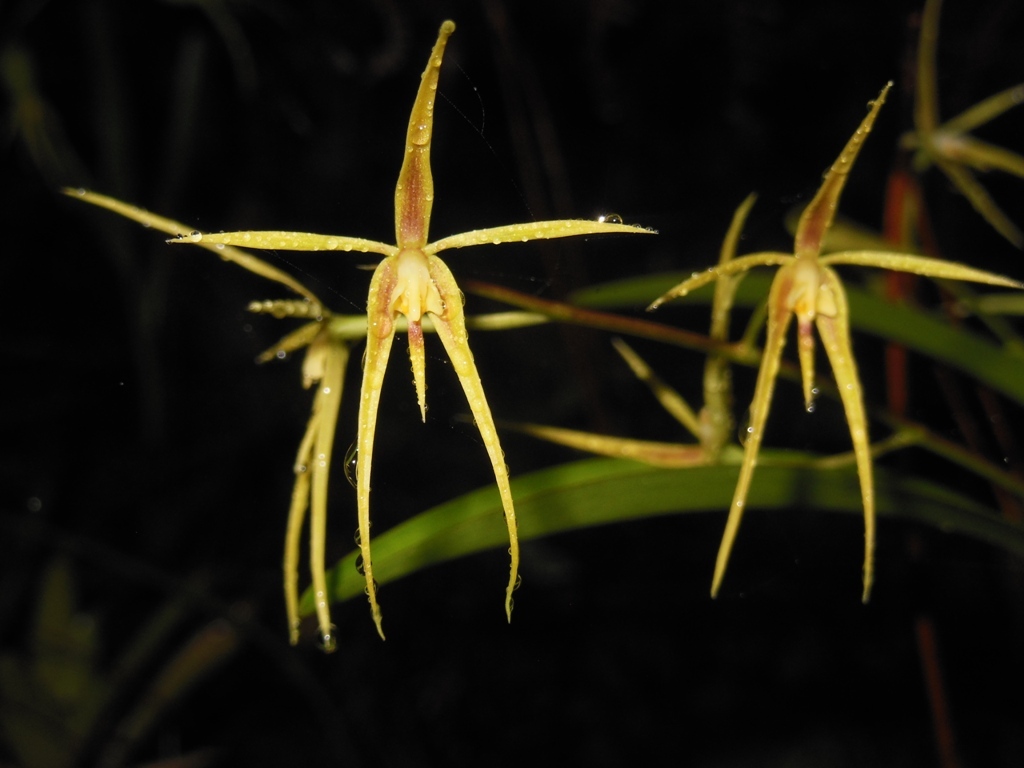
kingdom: Plantae
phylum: Tracheophyta
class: Liliopsida
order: Asparagales
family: Orchidaceae
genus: Prosthechea
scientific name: Prosthechea rhynchophora
